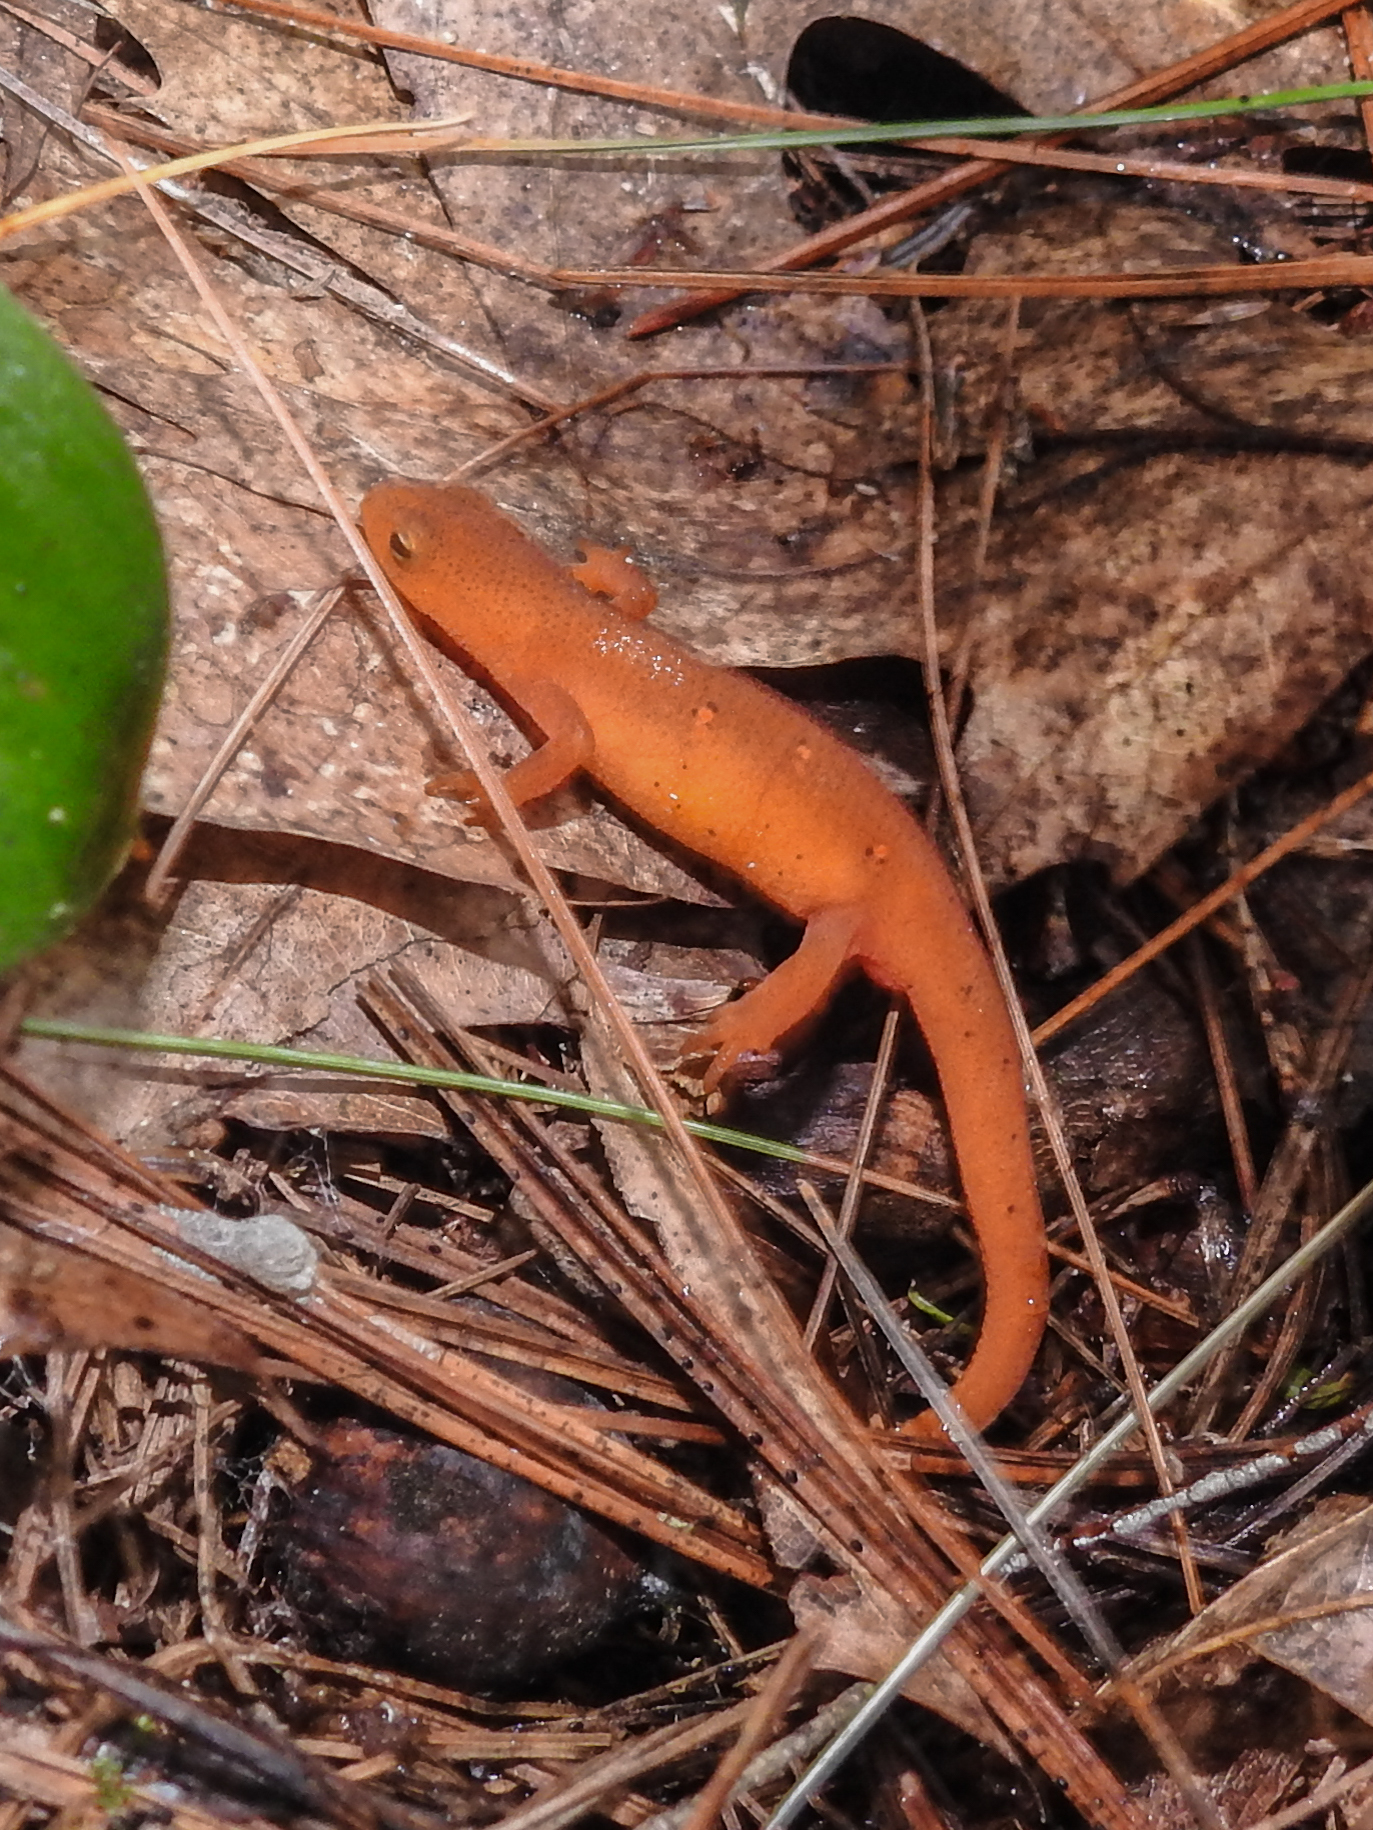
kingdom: Animalia
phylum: Chordata
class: Amphibia
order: Caudata
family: Salamandridae
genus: Notophthalmus
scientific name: Notophthalmus viridescens
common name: Eastern newt
